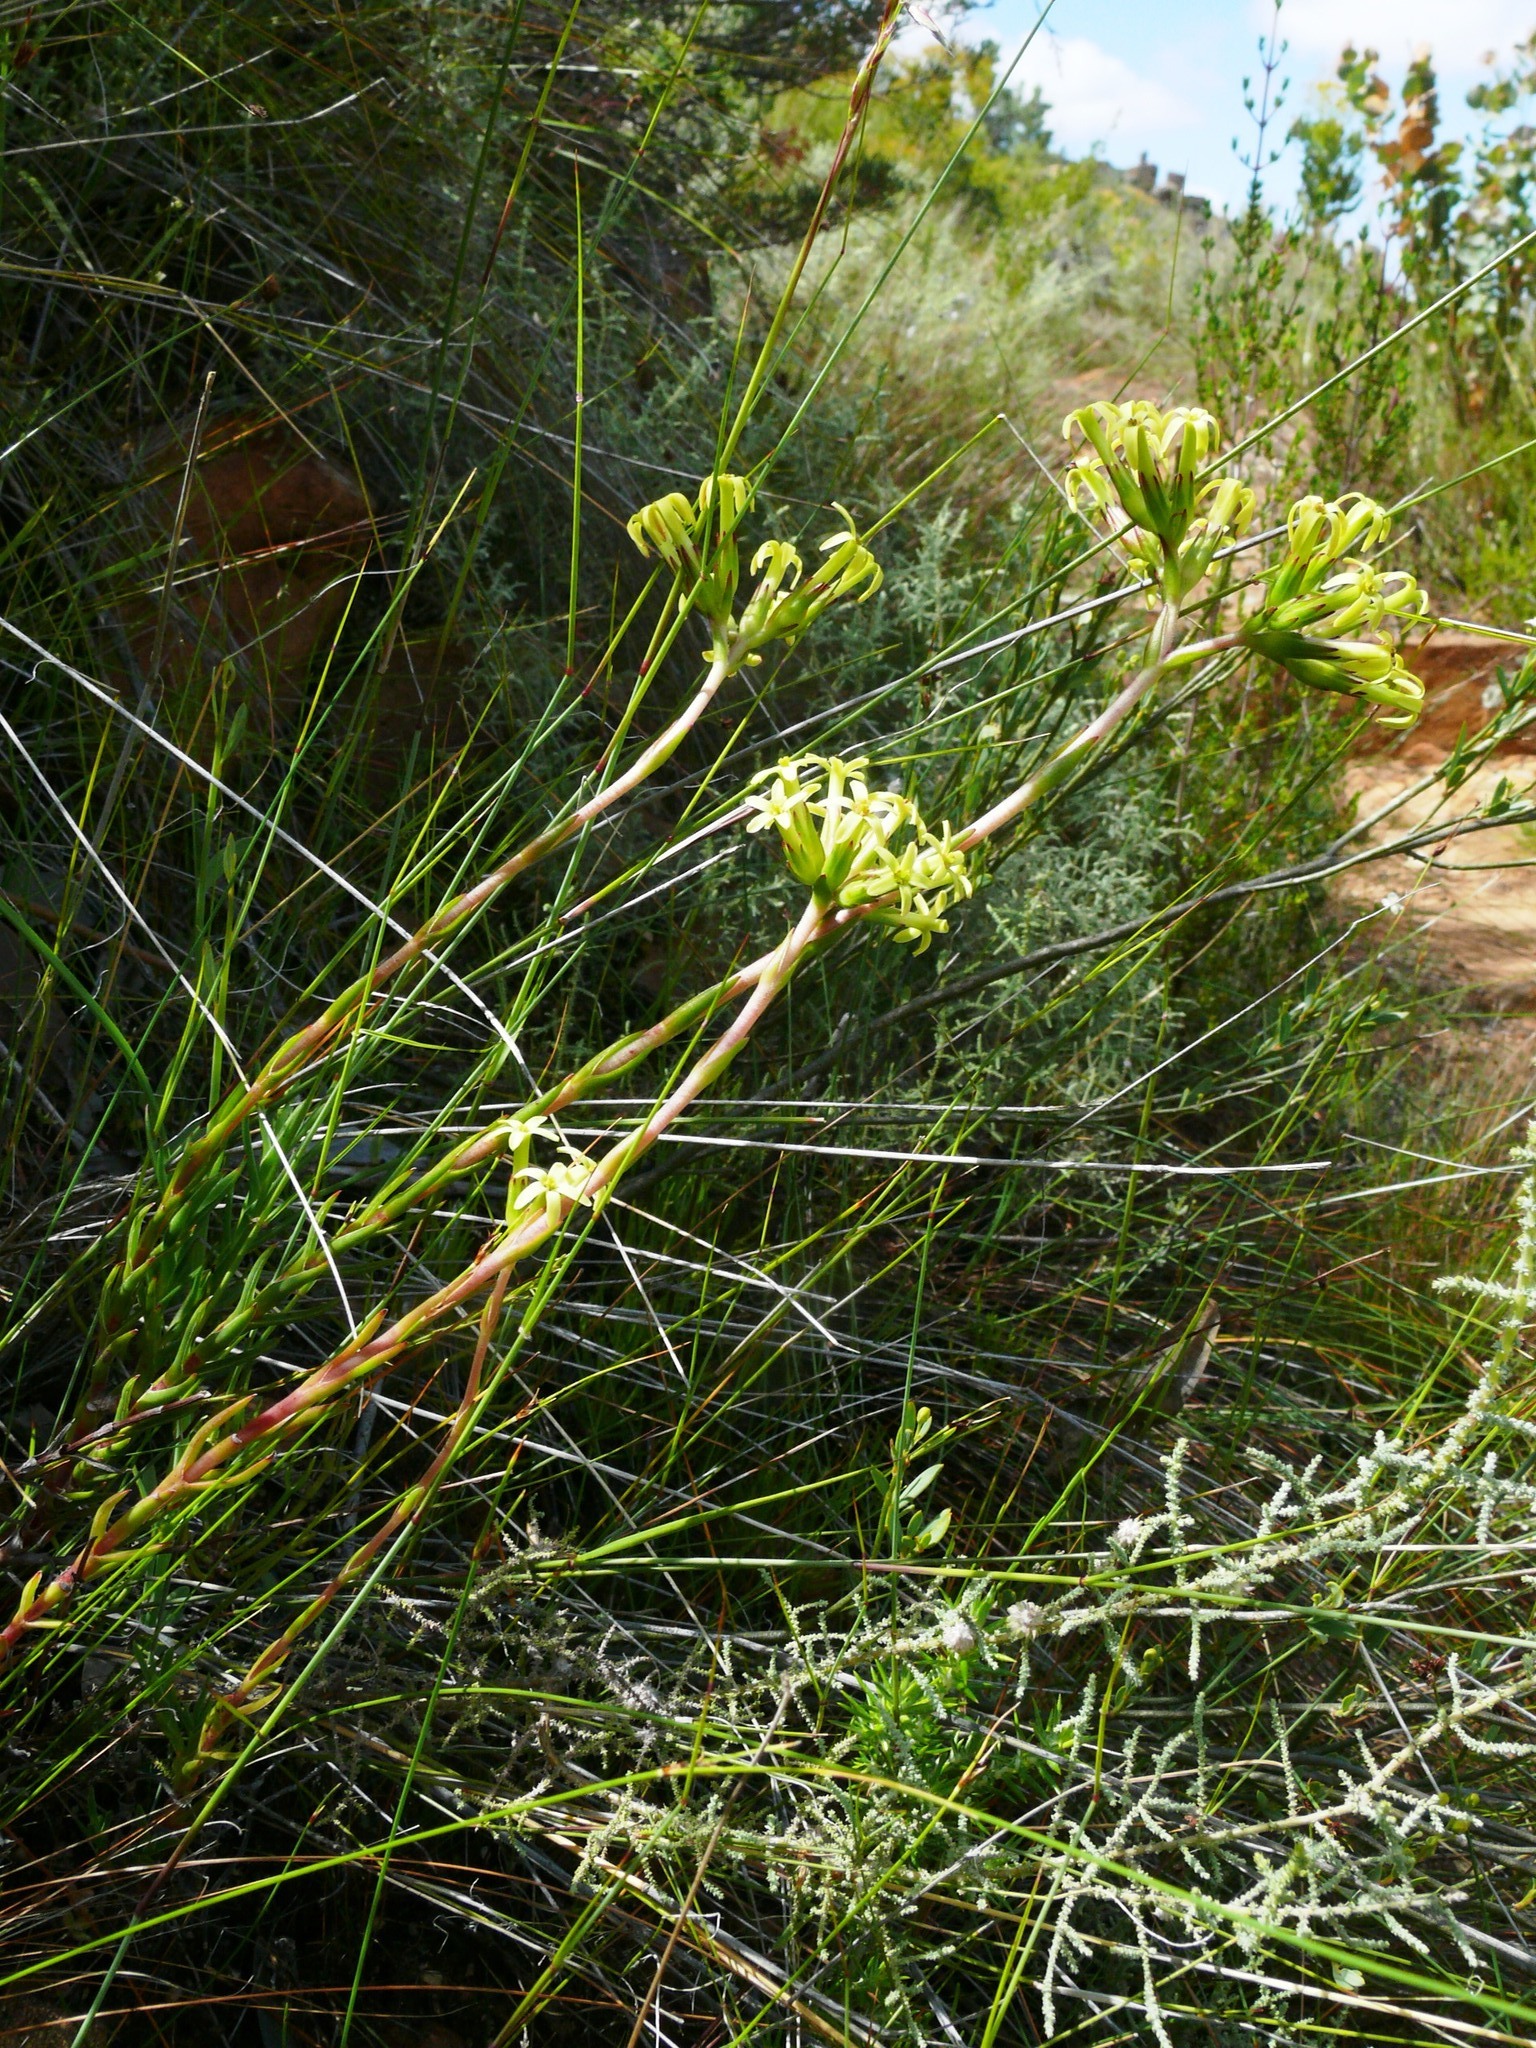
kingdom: Plantae
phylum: Tracheophyta
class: Magnoliopsida
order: Saxifragales
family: Crassulaceae
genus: Crassula
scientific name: Crassula fascicularis
